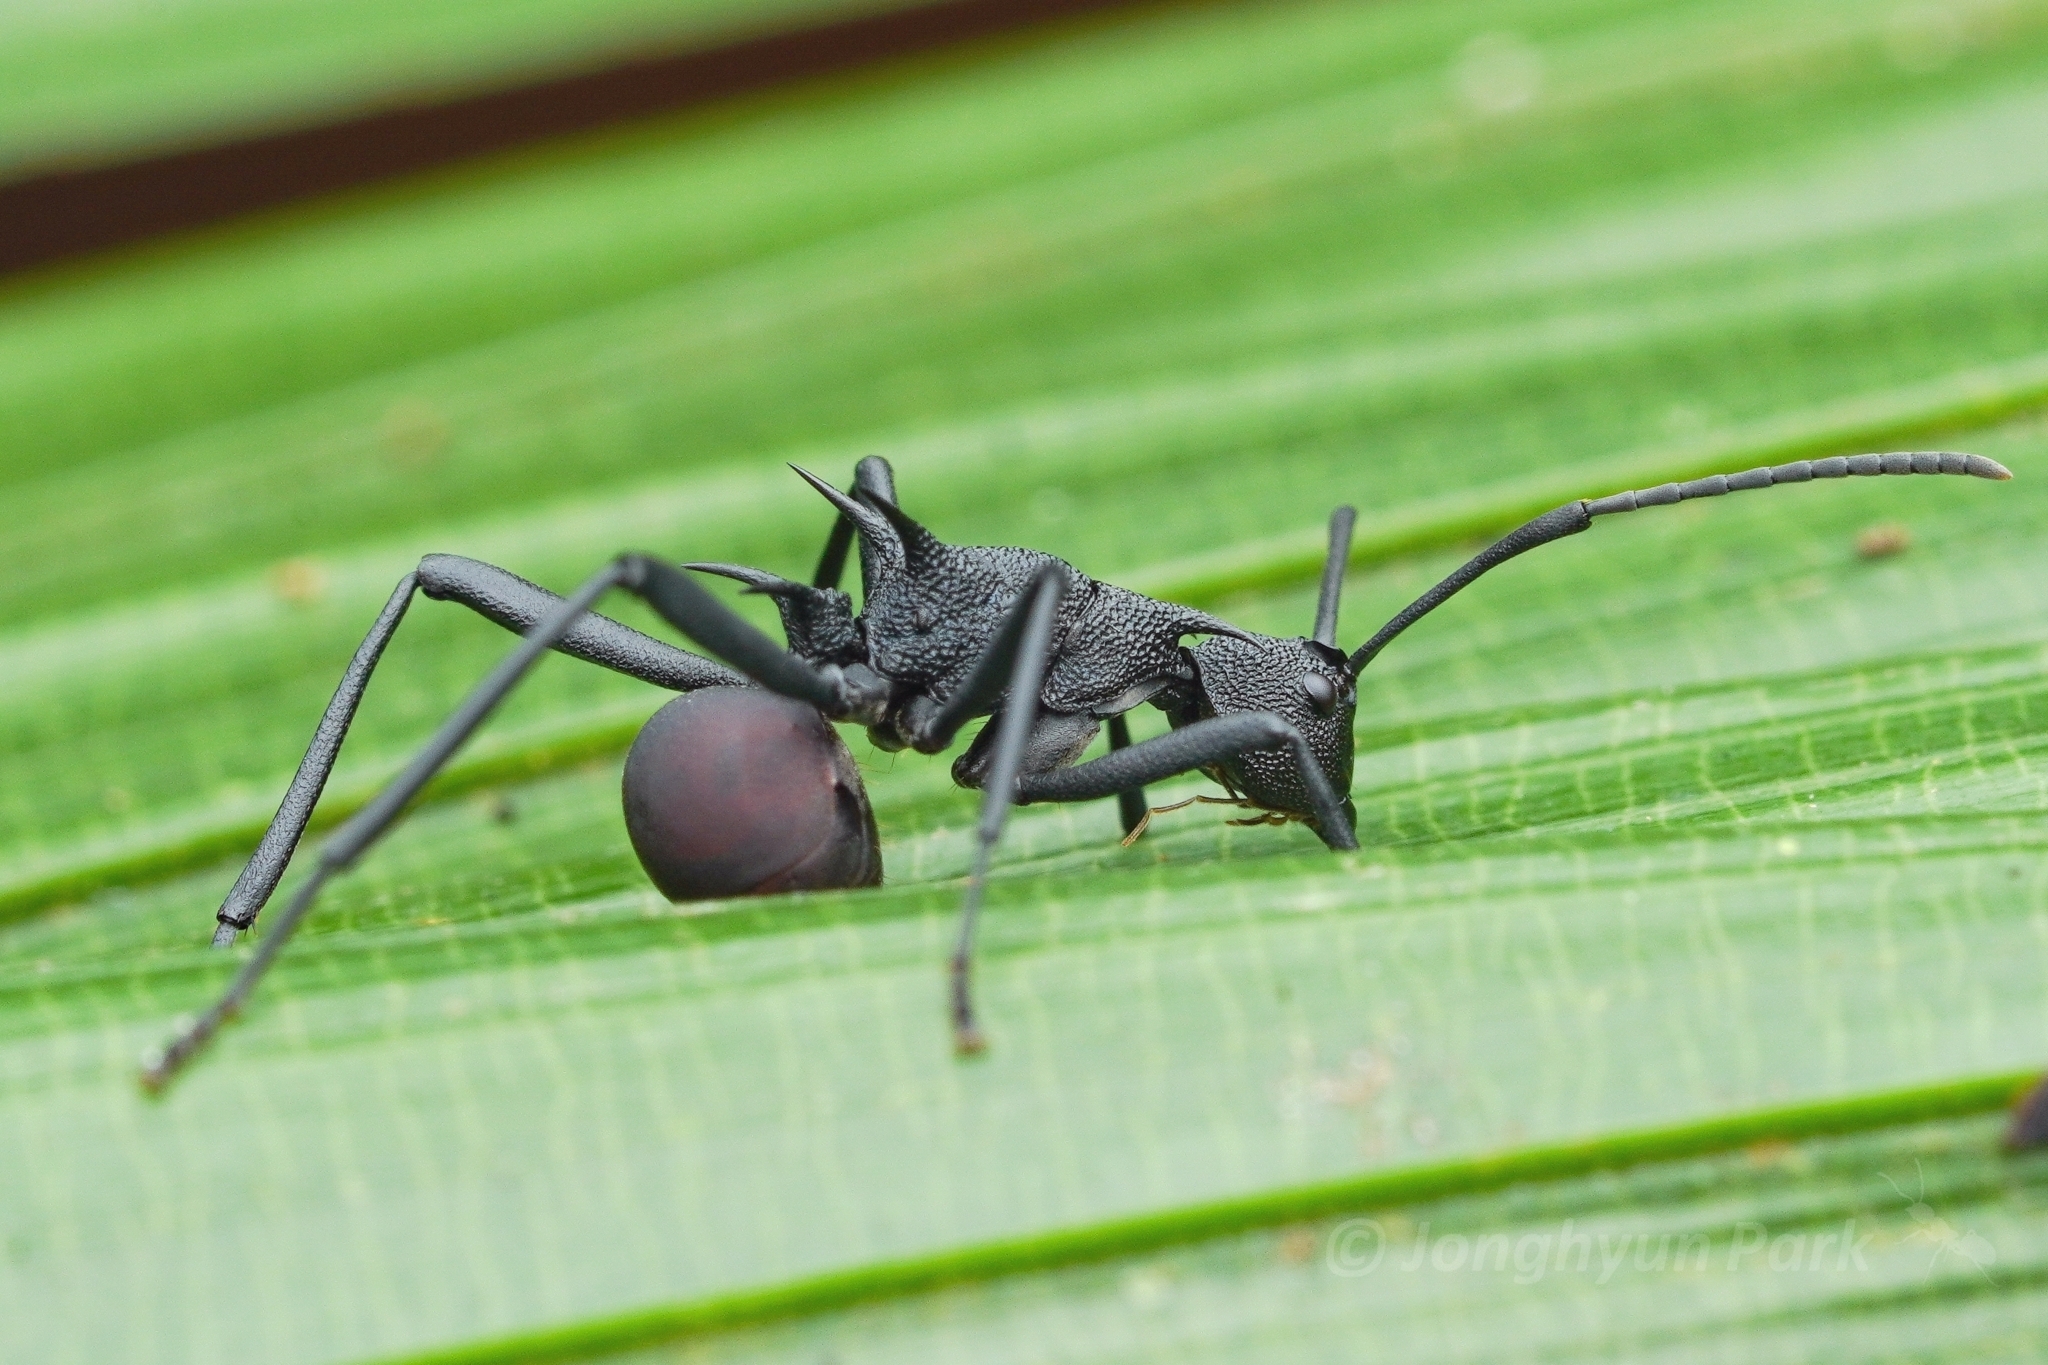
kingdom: Animalia
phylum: Arthropoda
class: Insecta
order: Hymenoptera
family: Formicidae
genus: Polyrhachis
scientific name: Polyrhachis armata
